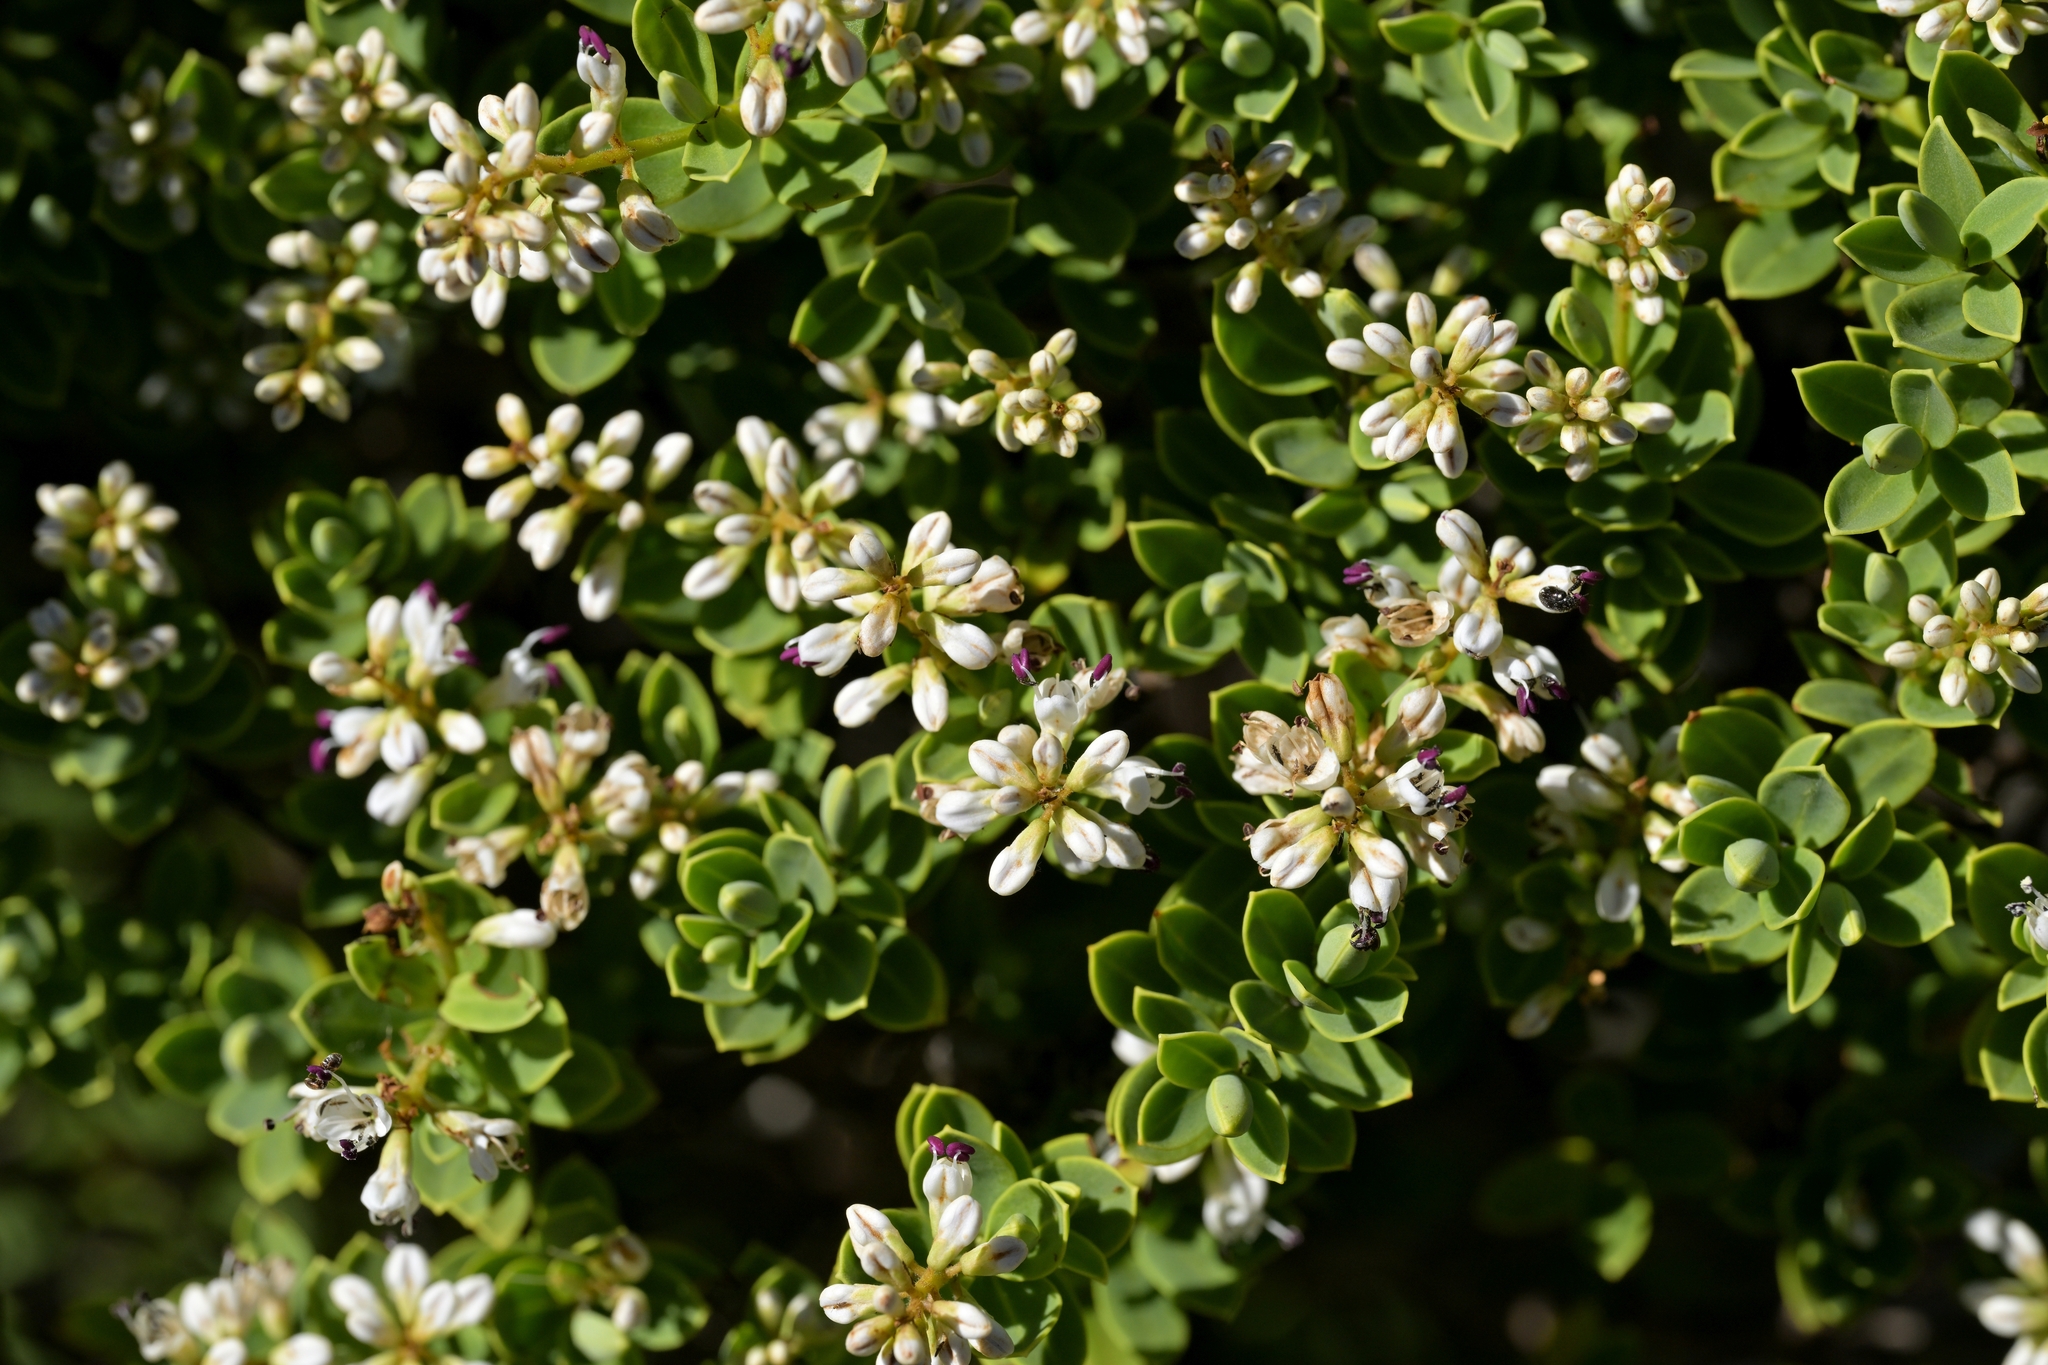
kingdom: Plantae
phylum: Tracheophyta
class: Magnoliopsida
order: Lamiales
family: Plantaginaceae
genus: Veronica
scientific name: Veronica topiaria
